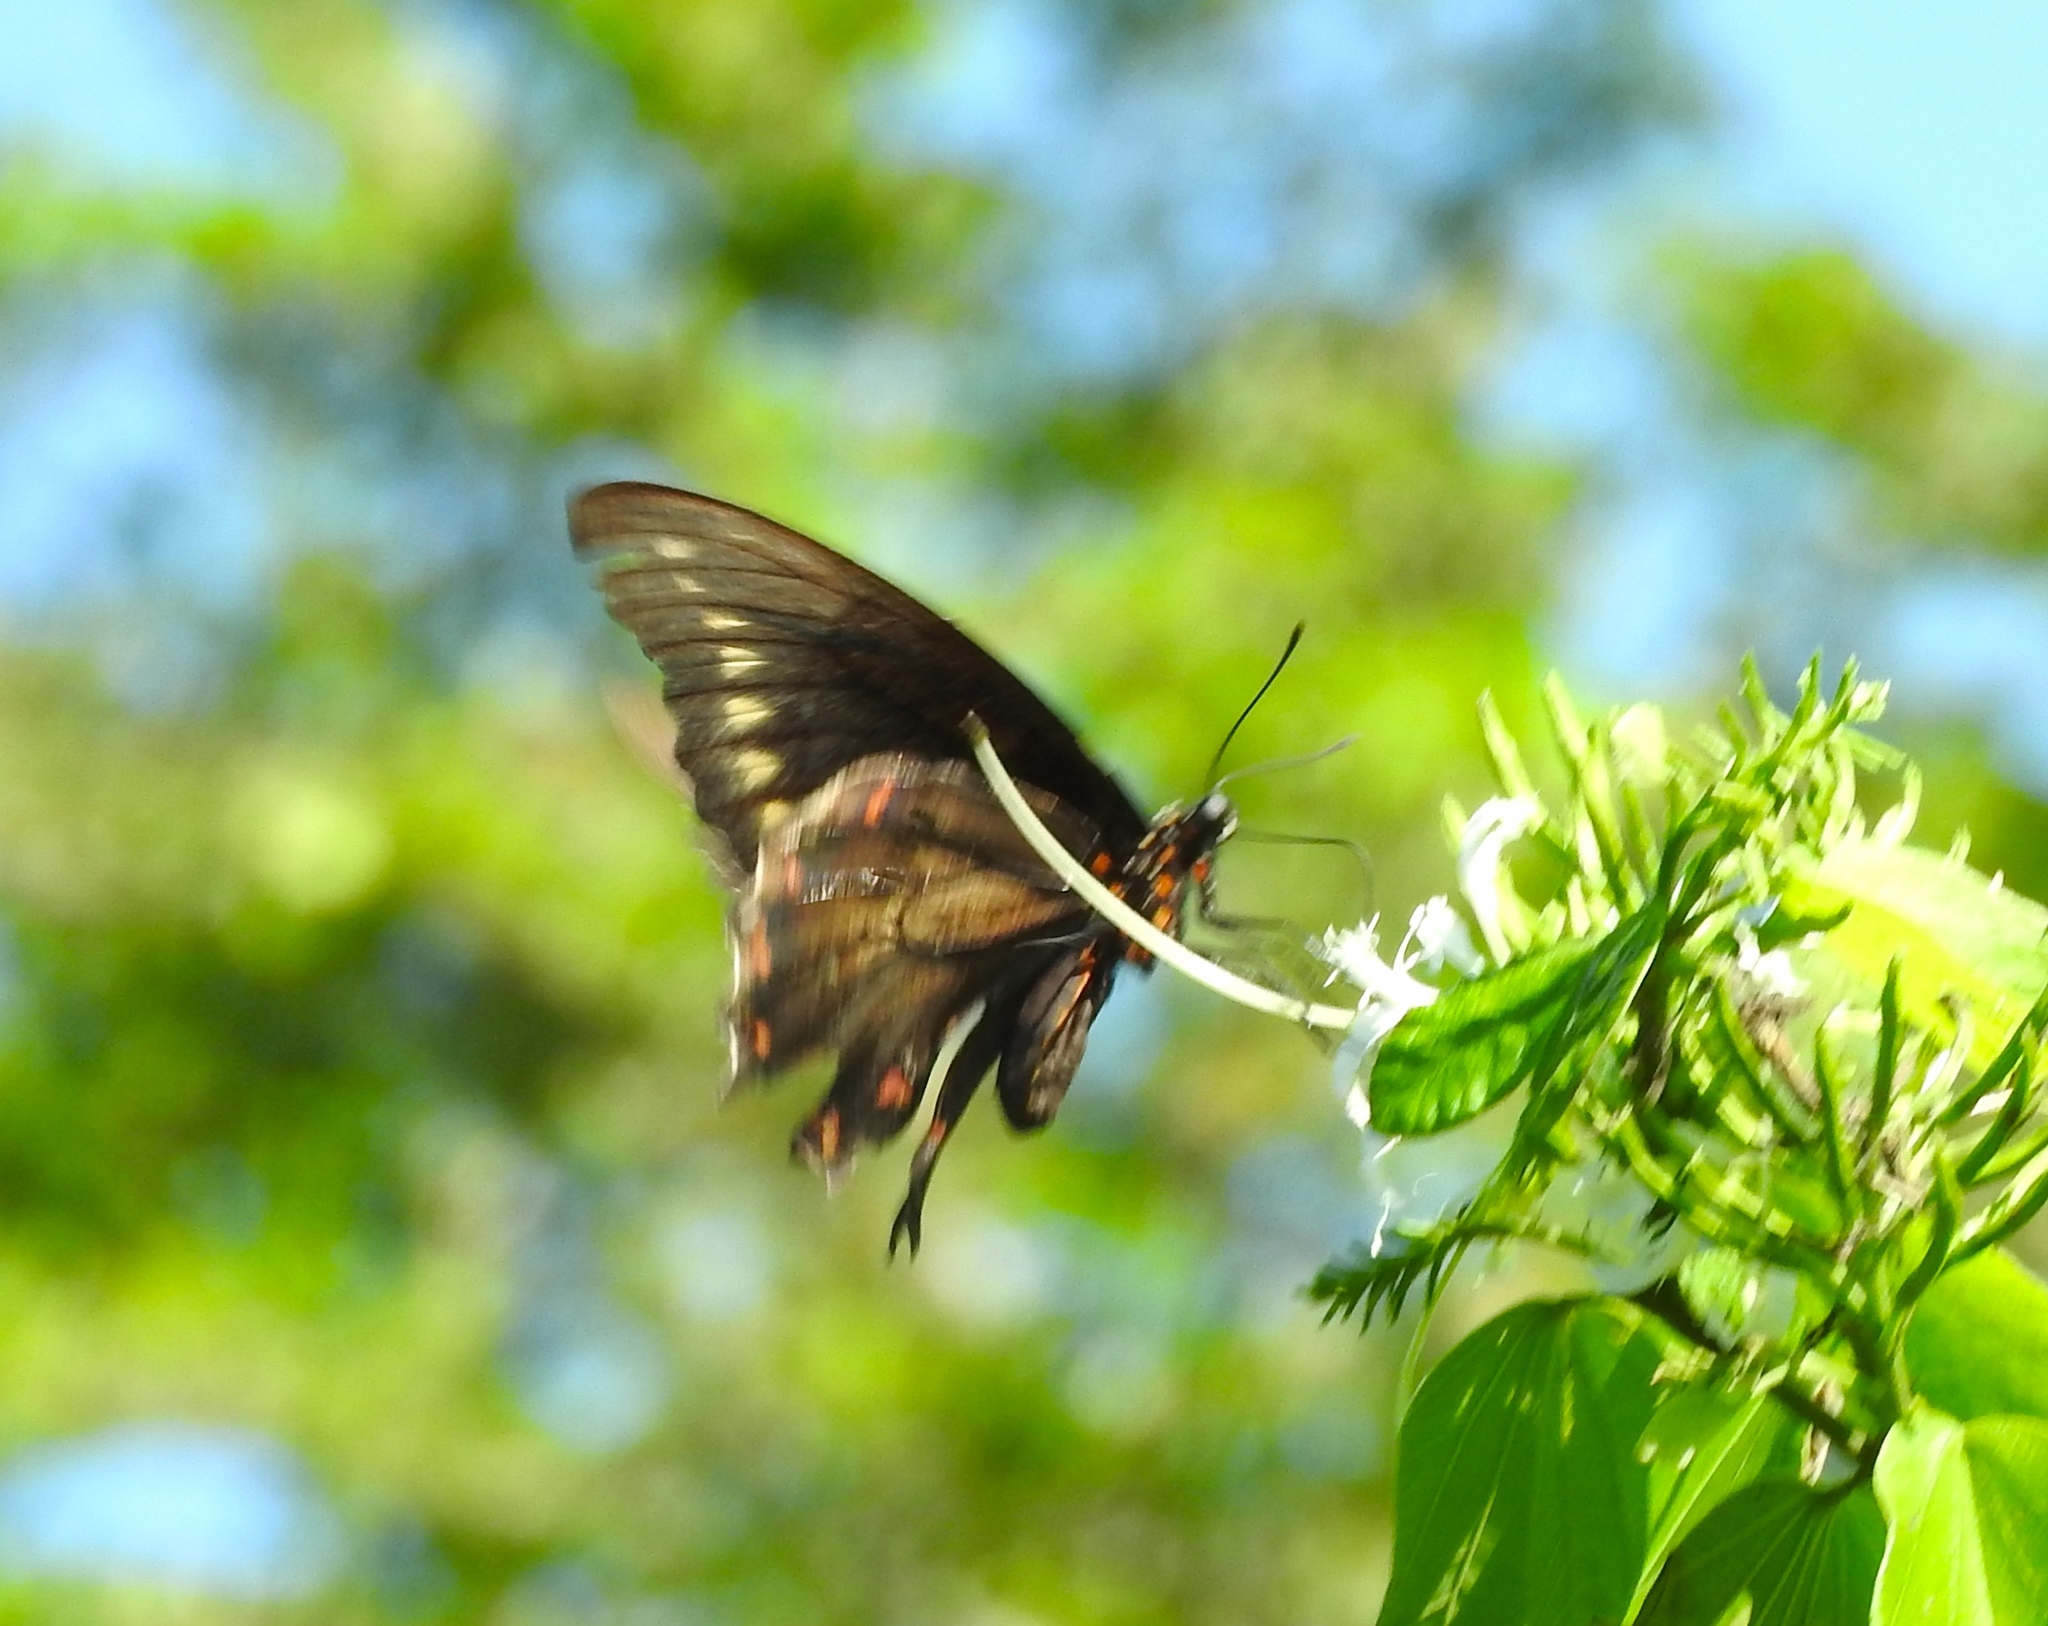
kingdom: Animalia
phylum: Arthropoda
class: Insecta
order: Lepidoptera
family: Papilionidae
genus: Battus
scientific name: Battus polydamas
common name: Polydamas swallowtail
